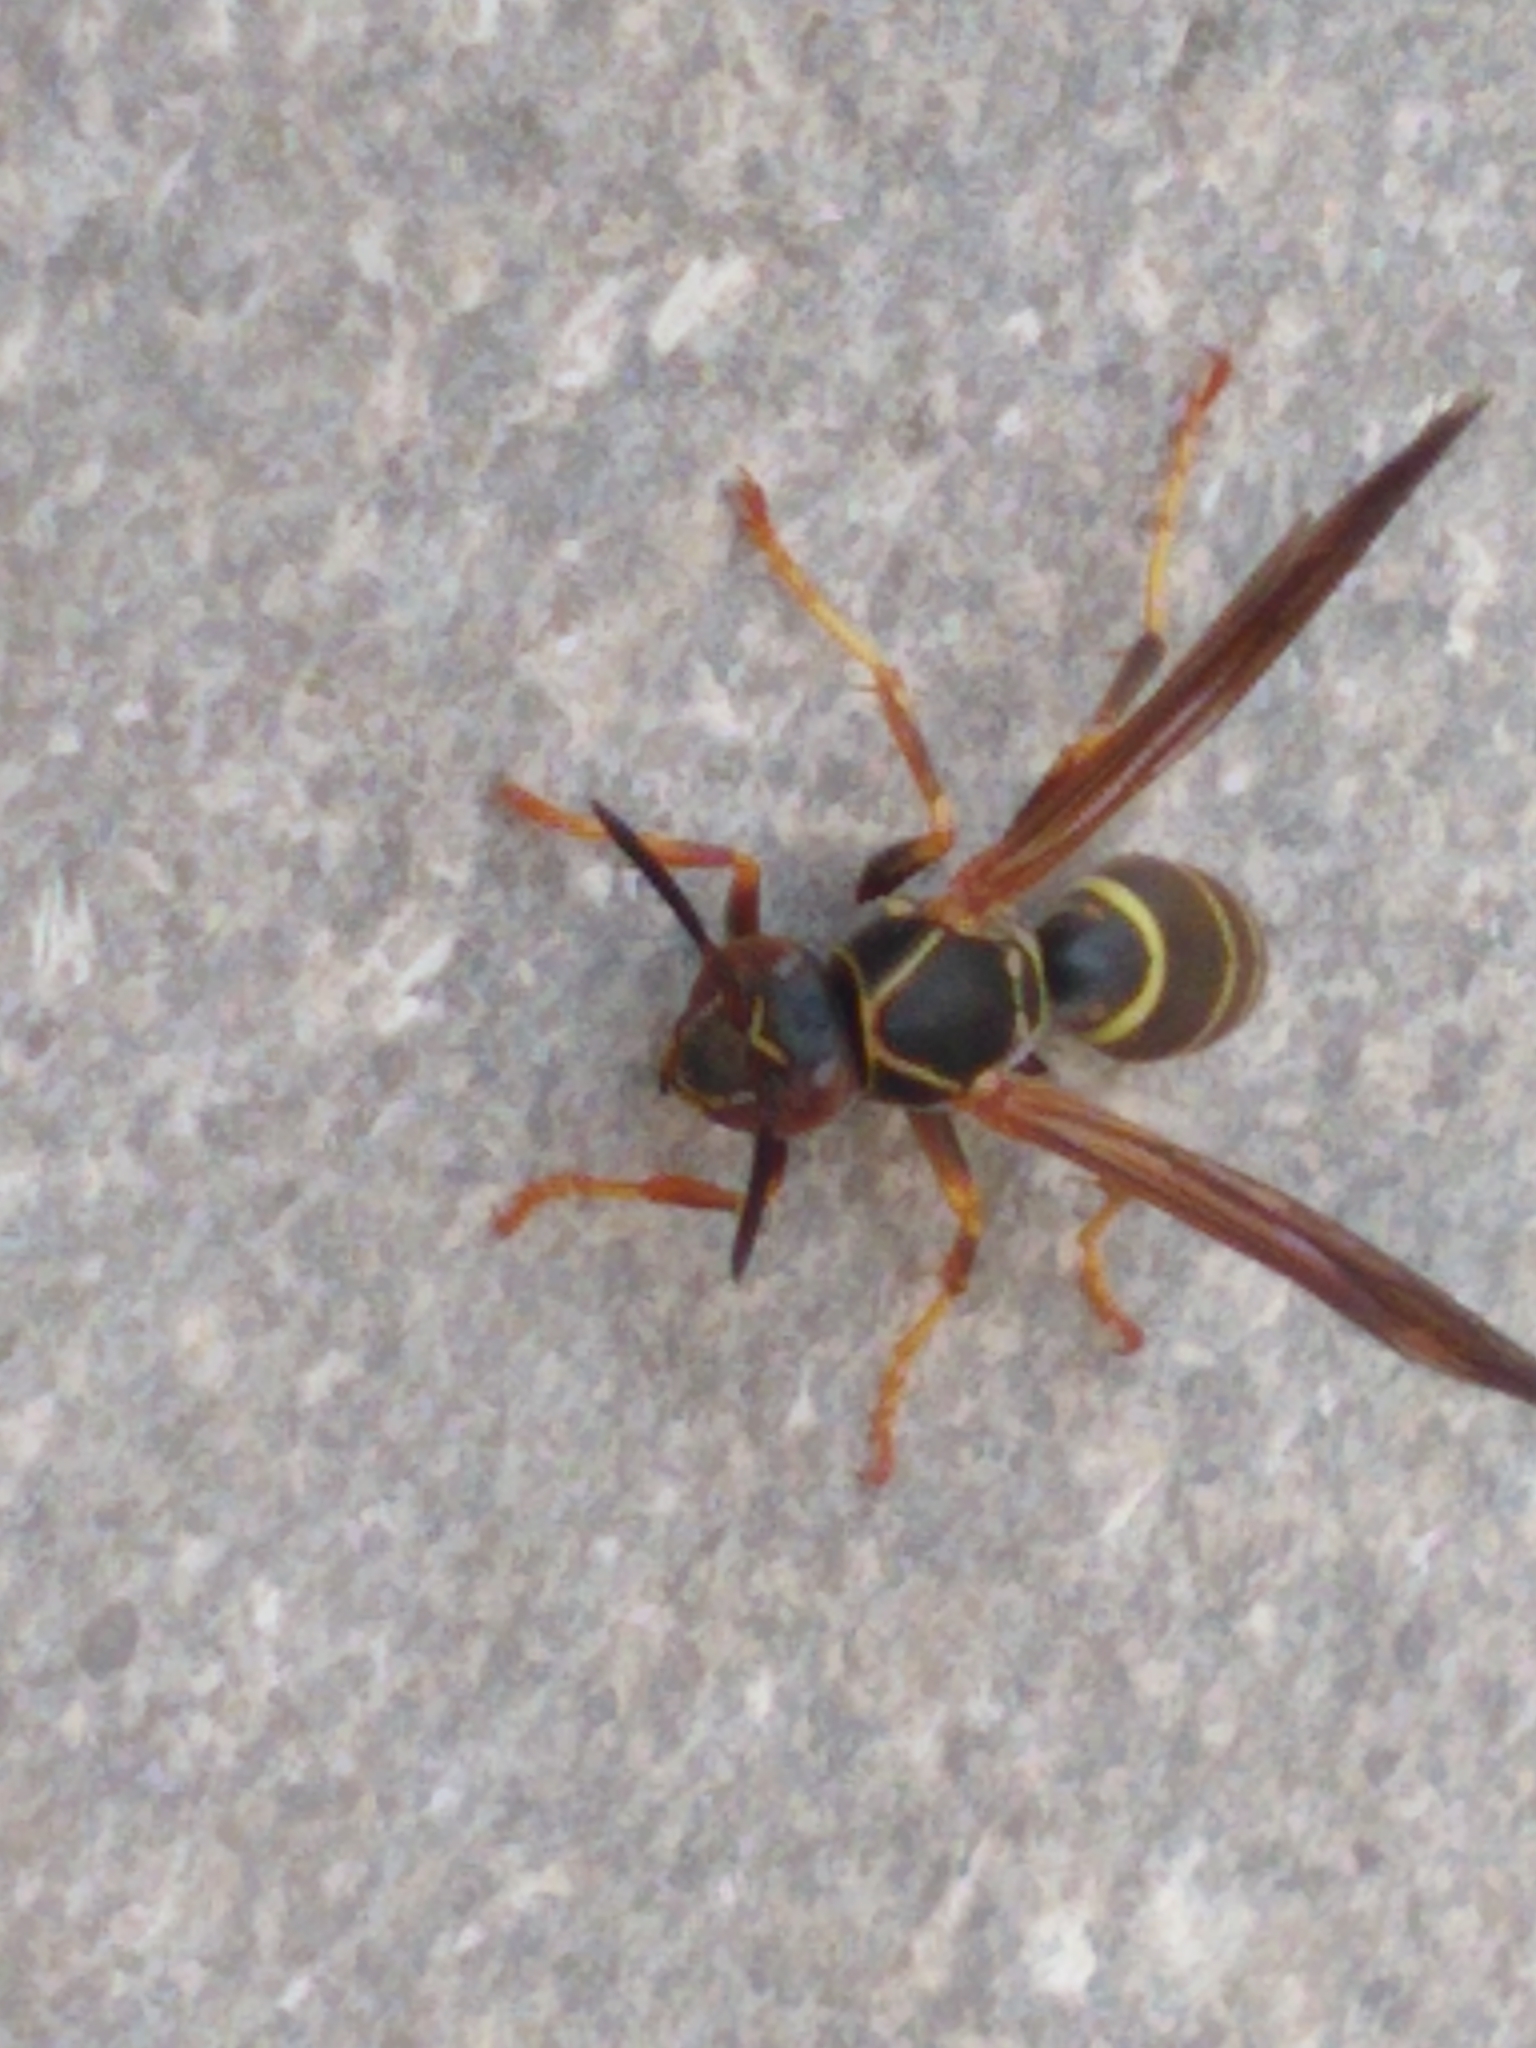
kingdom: Animalia
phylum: Arthropoda
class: Insecta
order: Hymenoptera
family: Eumenidae
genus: Polistes
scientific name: Polistes fuscatus
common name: Dark paper wasp
